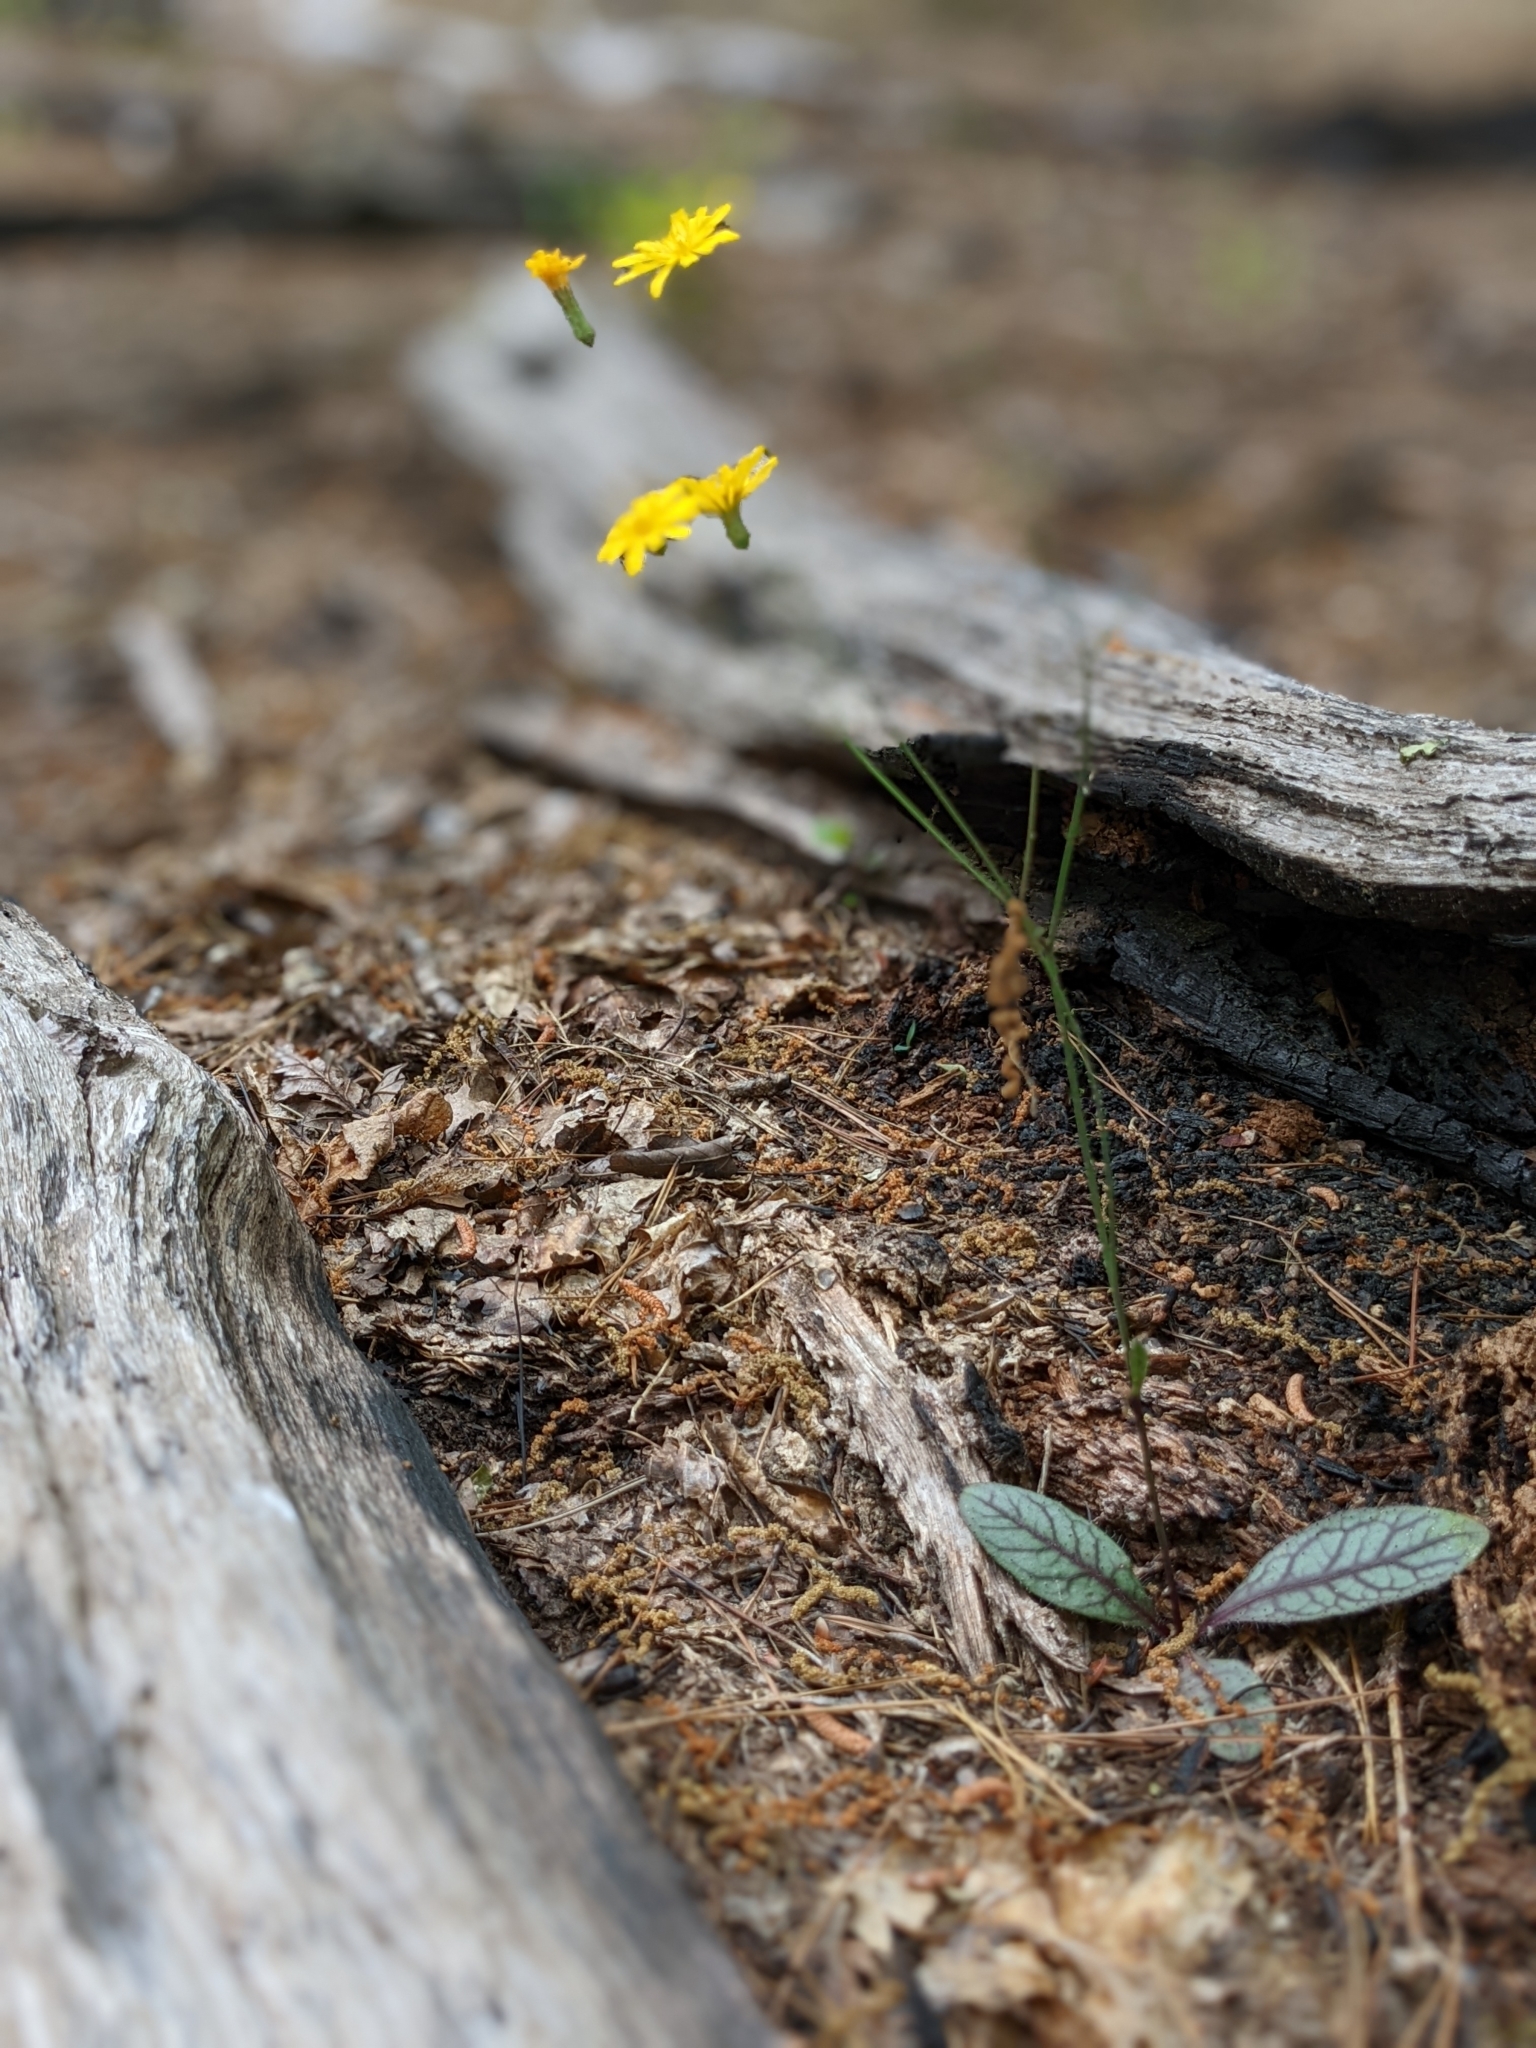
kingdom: Plantae
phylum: Tracheophyta
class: Magnoliopsida
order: Asterales
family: Asteraceae
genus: Hieracium
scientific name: Hieracium venosum
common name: Rattlesnake hawkweed
